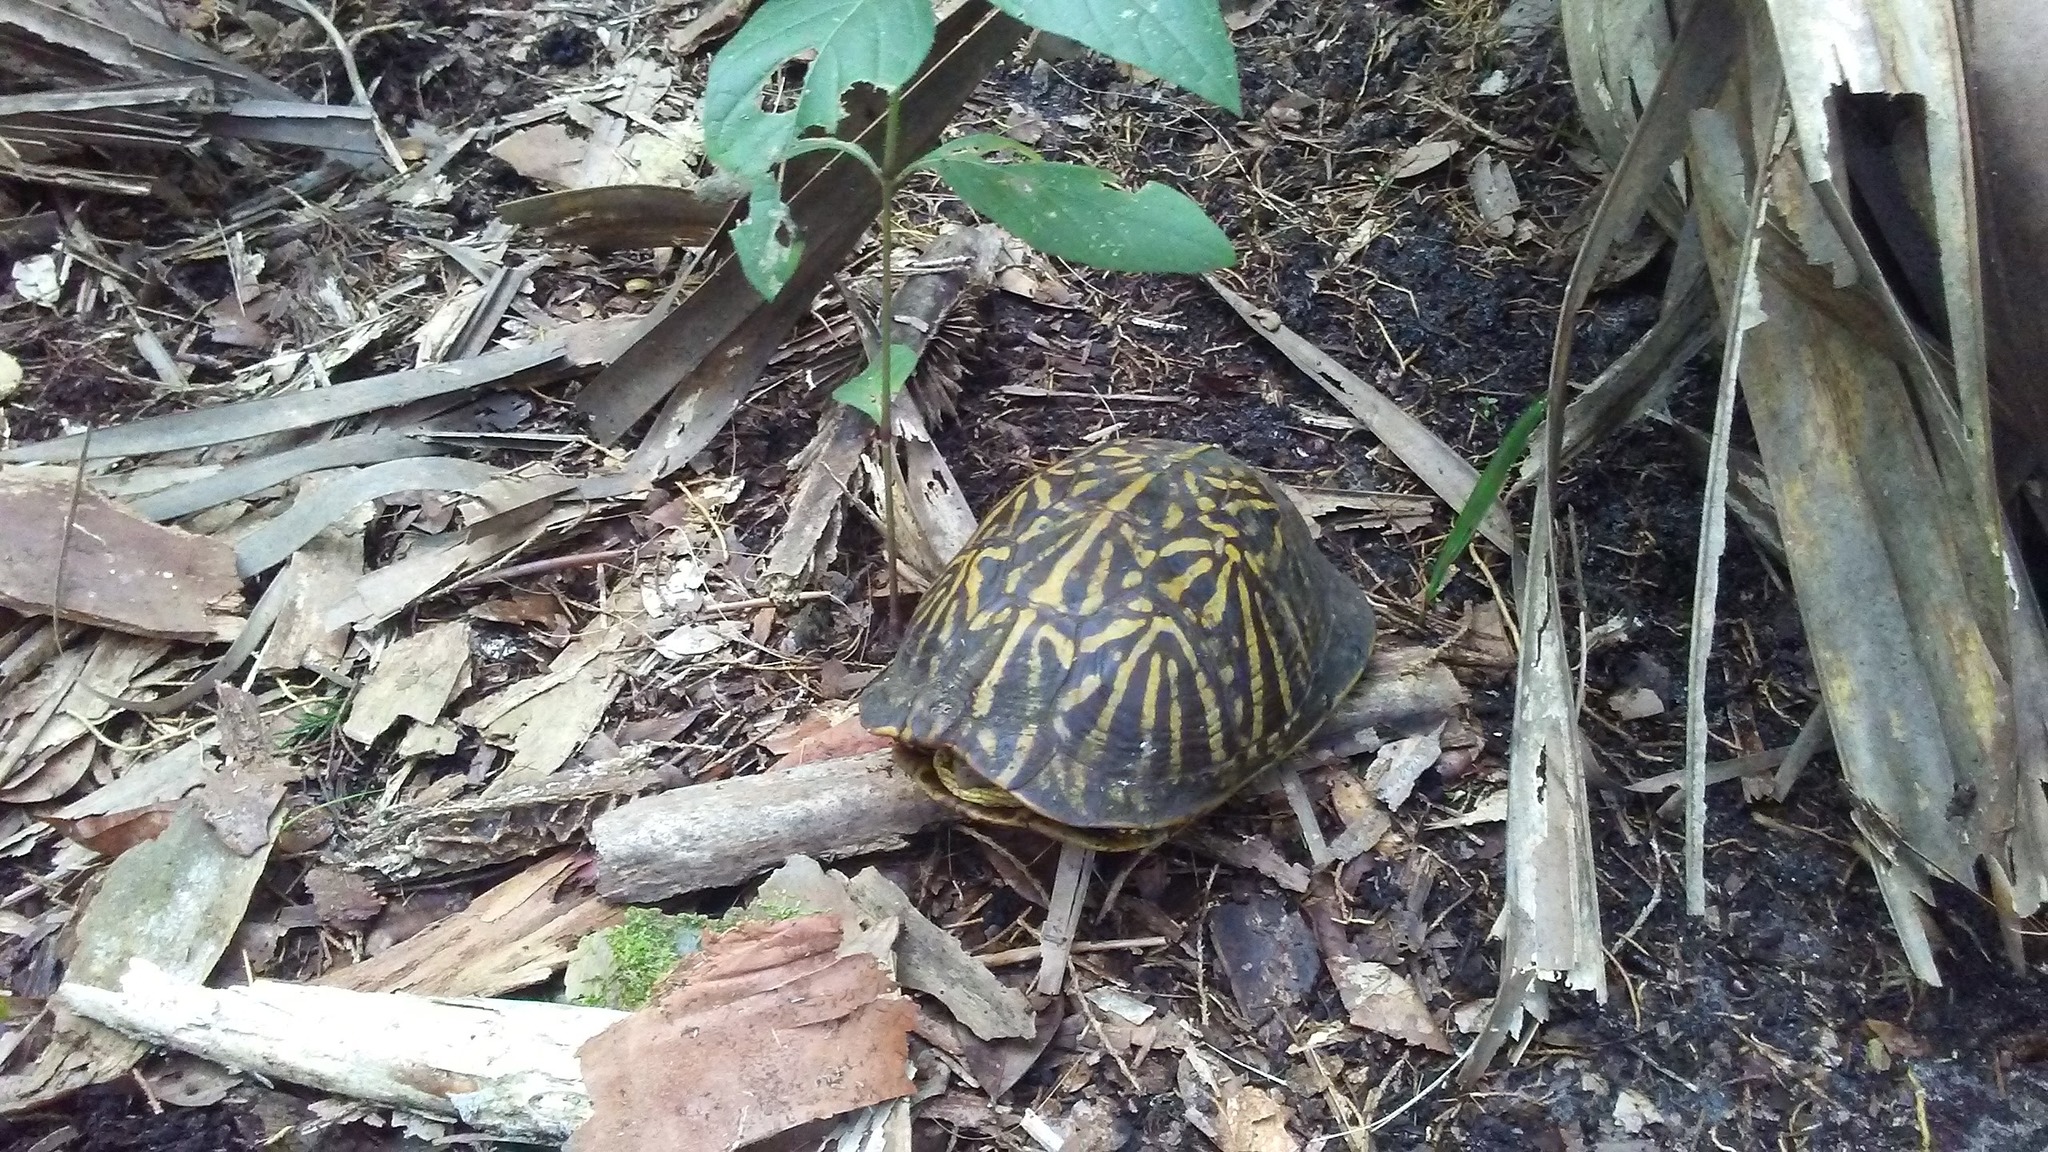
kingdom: Animalia
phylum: Chordata
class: Testudines
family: Emydidae
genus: Terrapene
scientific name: Terrapene carolina
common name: Common box turtle
